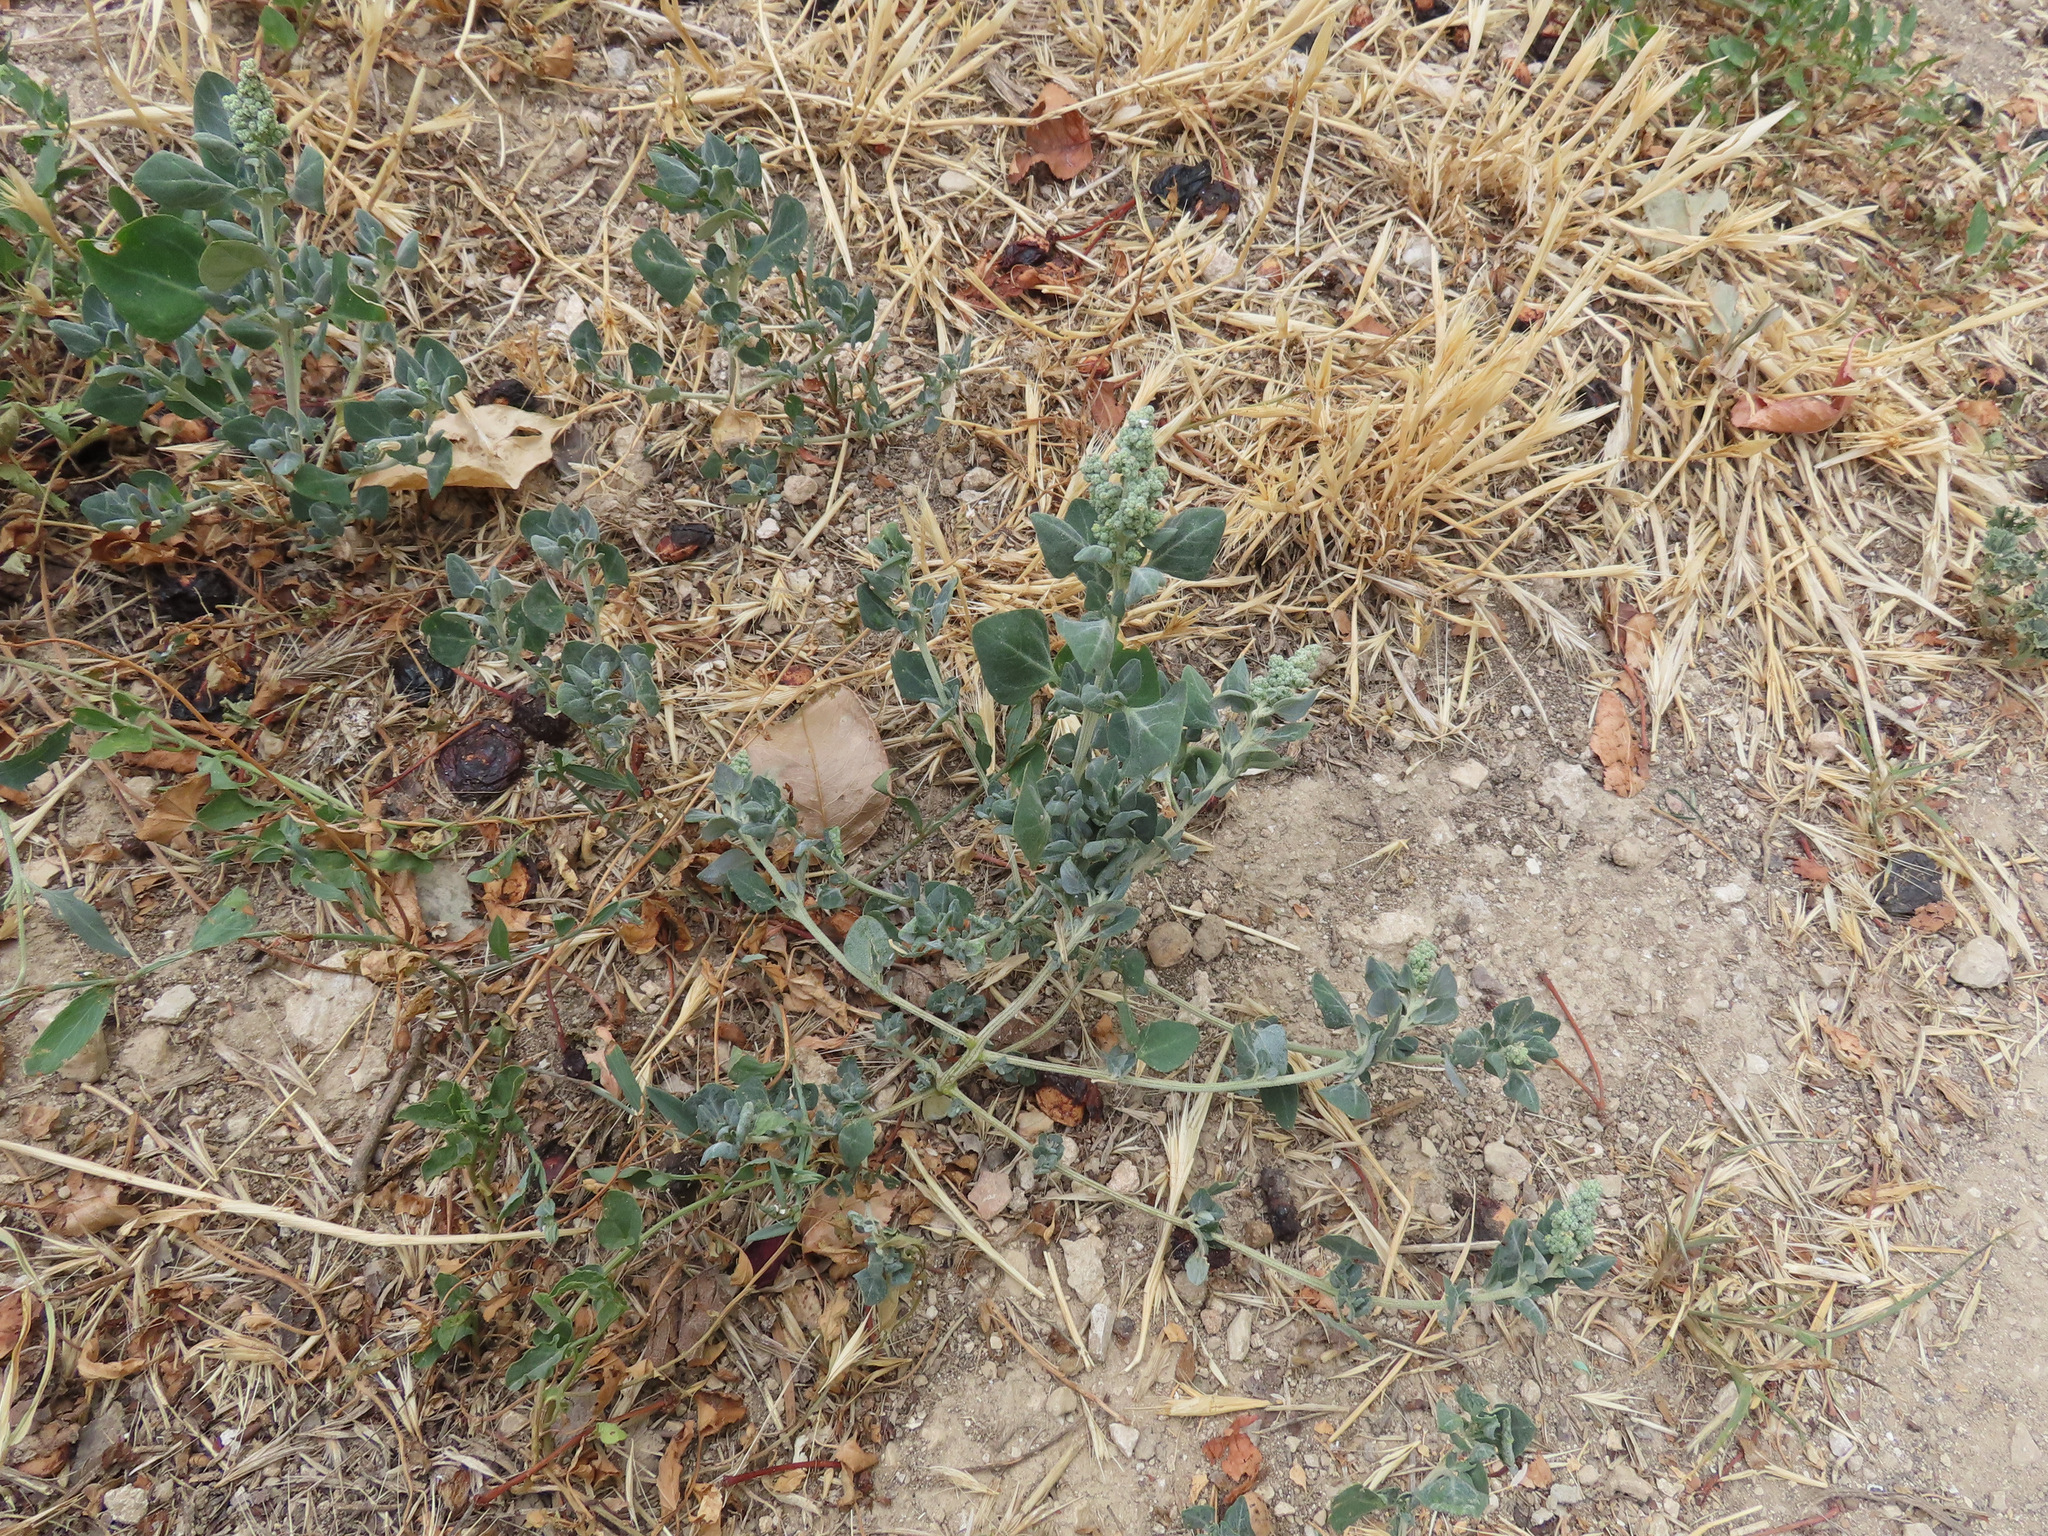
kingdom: Plantae
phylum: Tracheophyta
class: Magnoliopsida
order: Caryophyllales
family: Amaranthaceae
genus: Chenopodium
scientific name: Chenopodium vulvaria
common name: Stinking goosefoot
